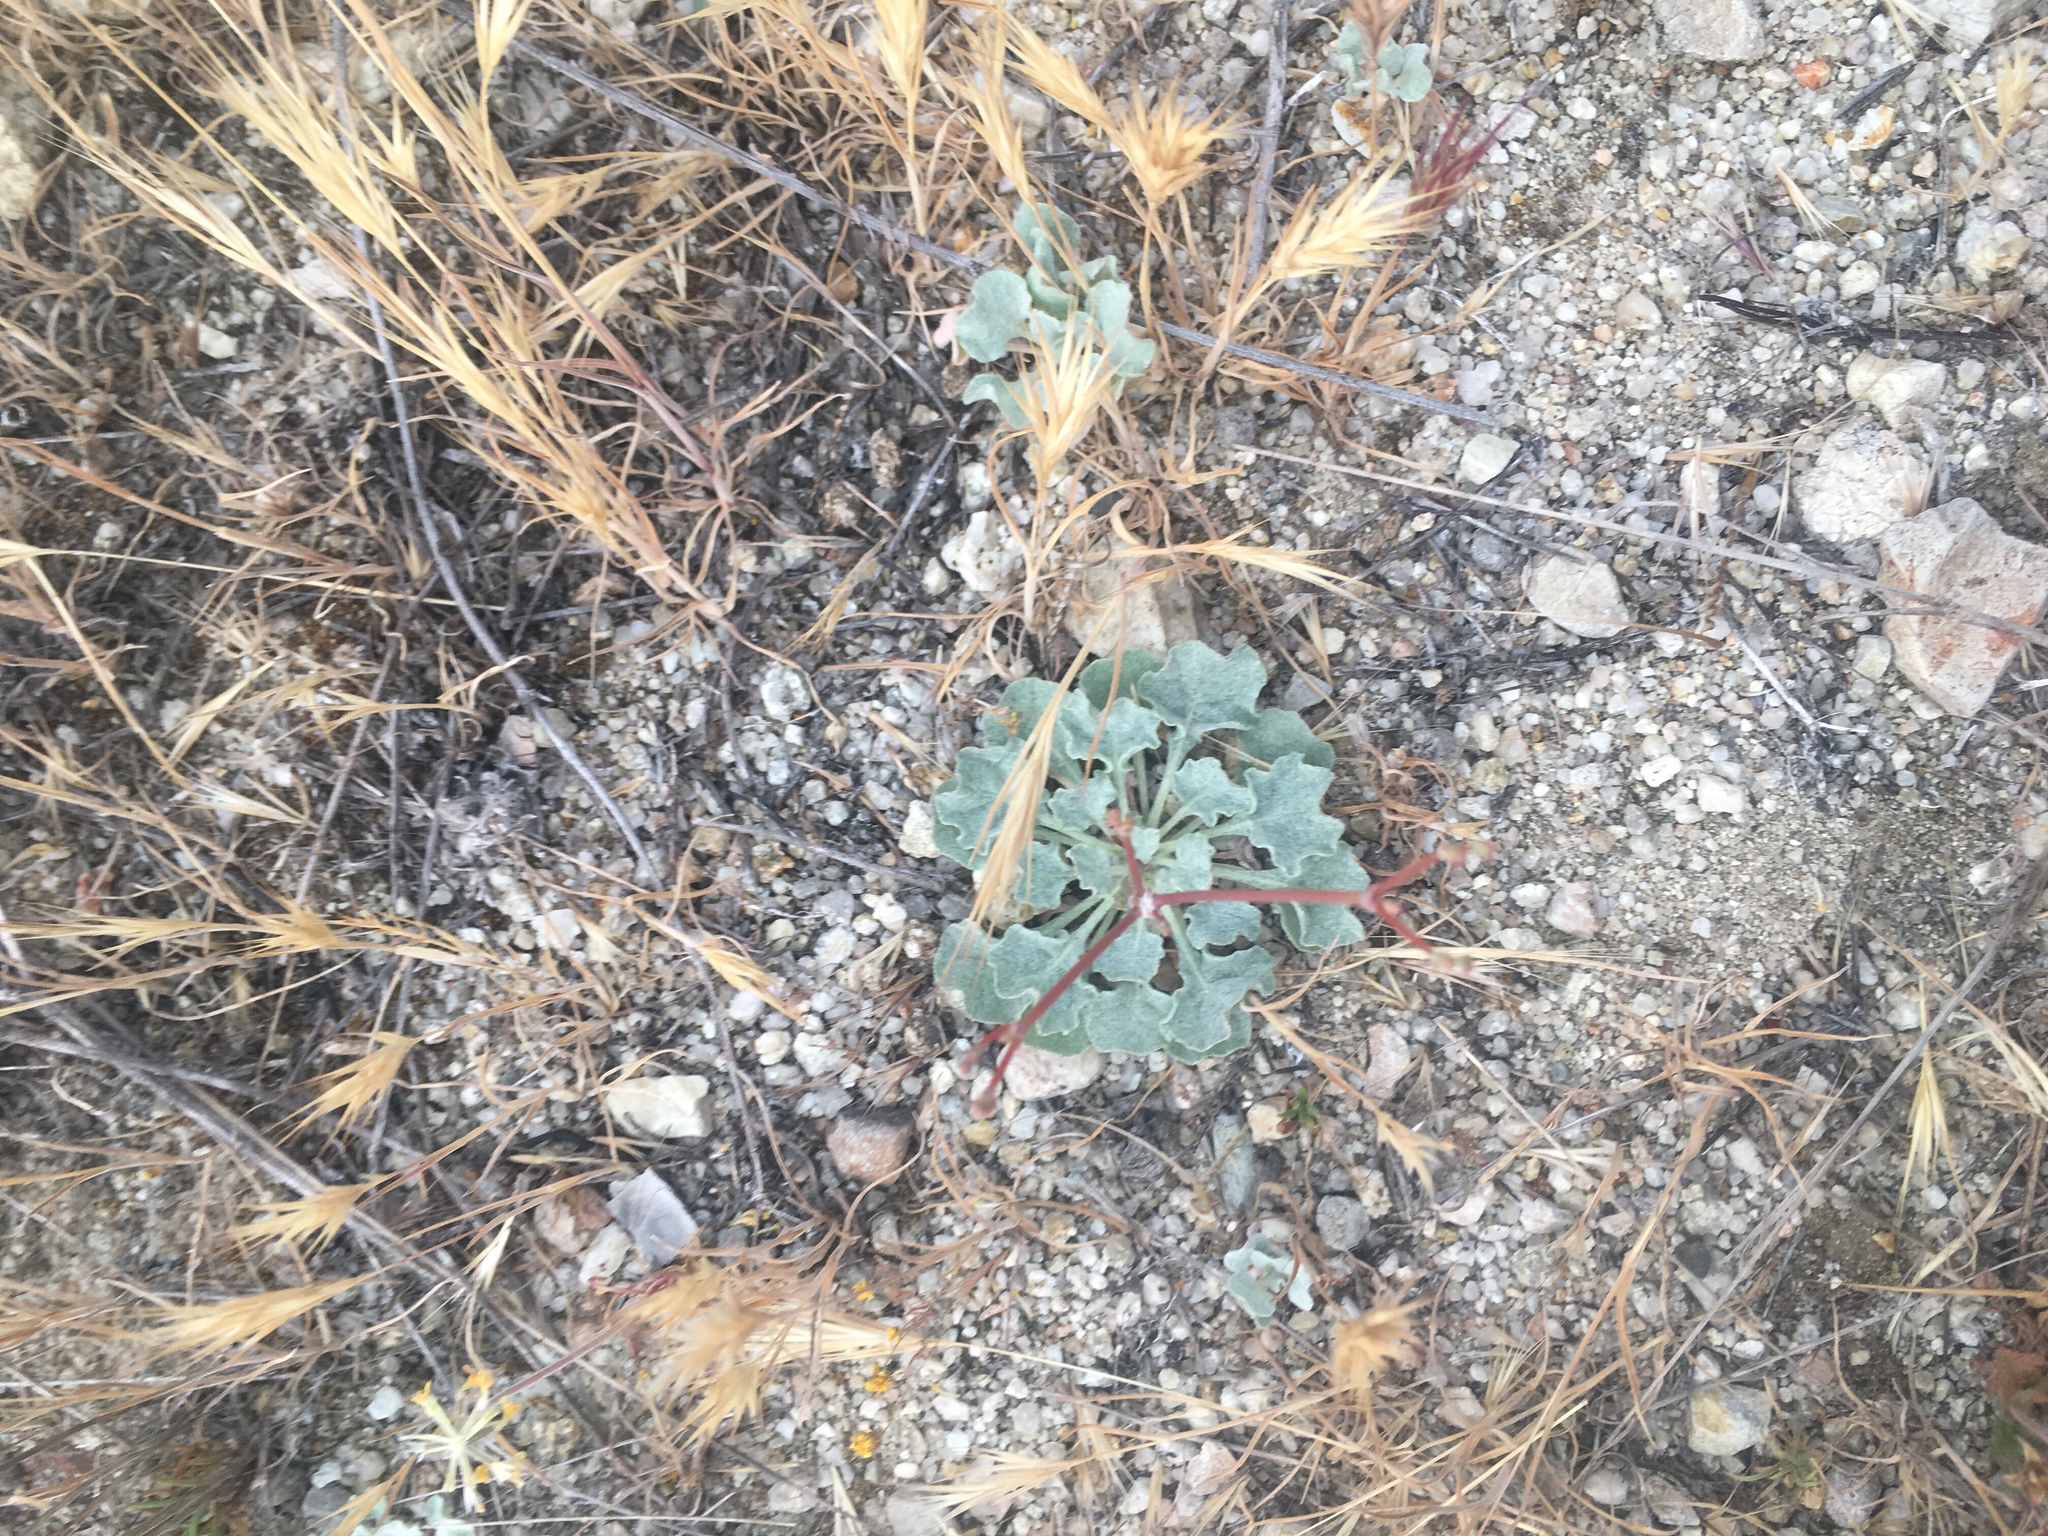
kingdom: Plantae
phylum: Tracheophyta
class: Magnoliopsida
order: Caryophyllales
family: Polygonaceae
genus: Eriogonum
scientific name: Eriogonum elegans
